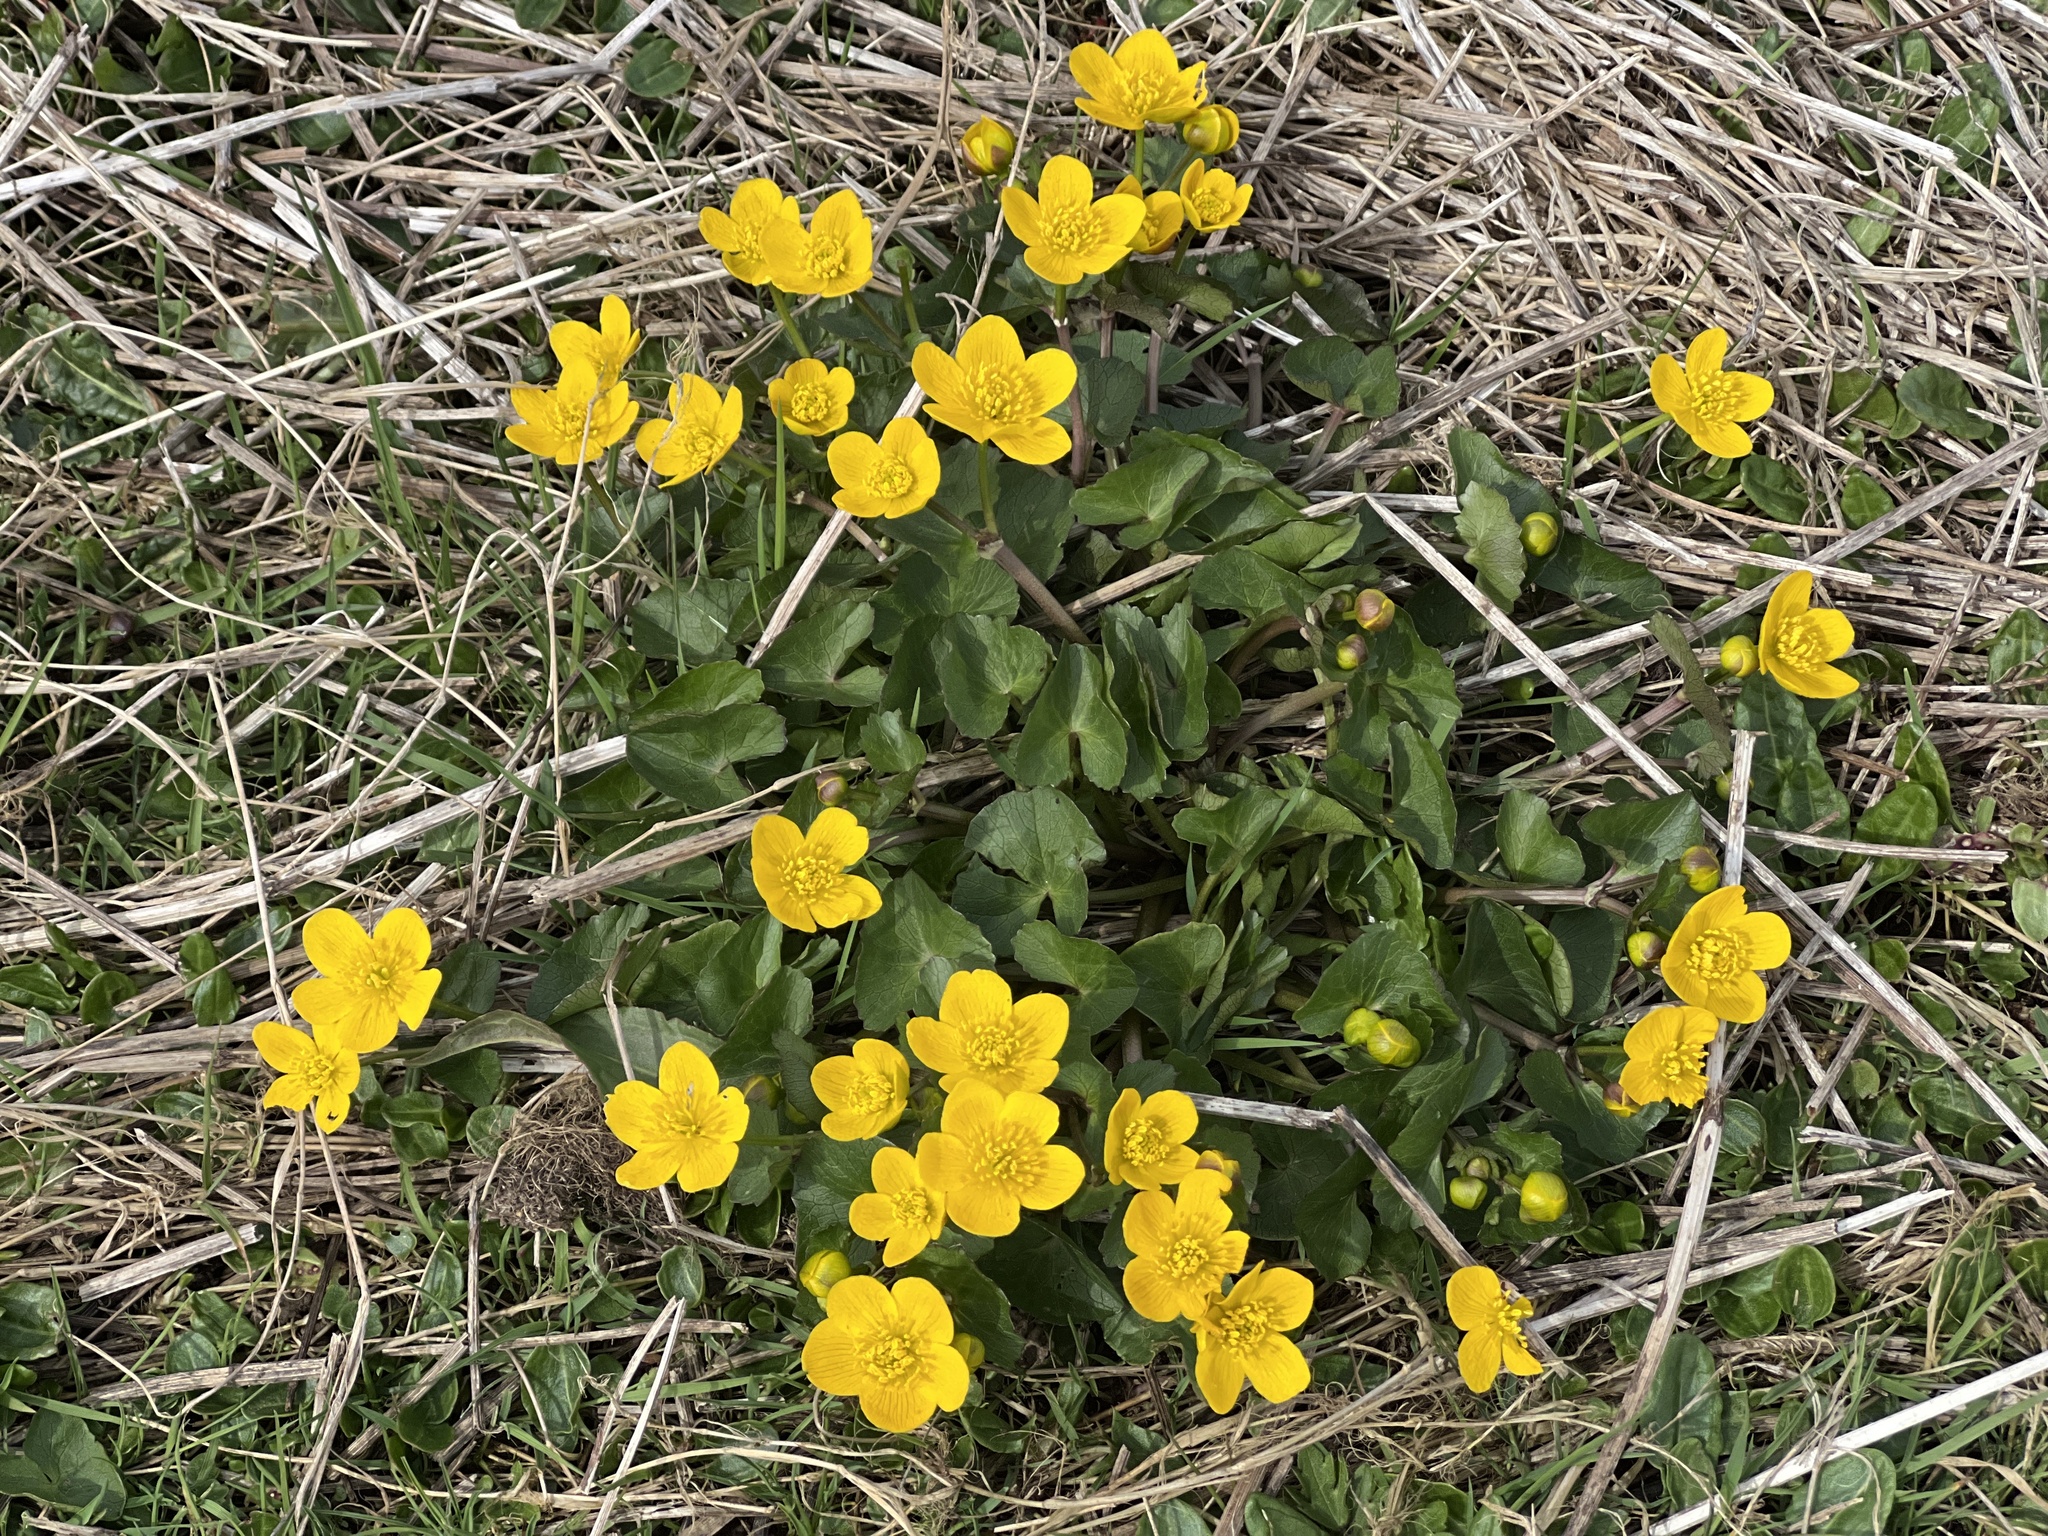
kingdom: Plantae
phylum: Tracheophyta
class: Magnoliopsida
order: Ranunculales
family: Ranunculaceae
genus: Caltha
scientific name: Caltha palustris
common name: Marsh marigold
